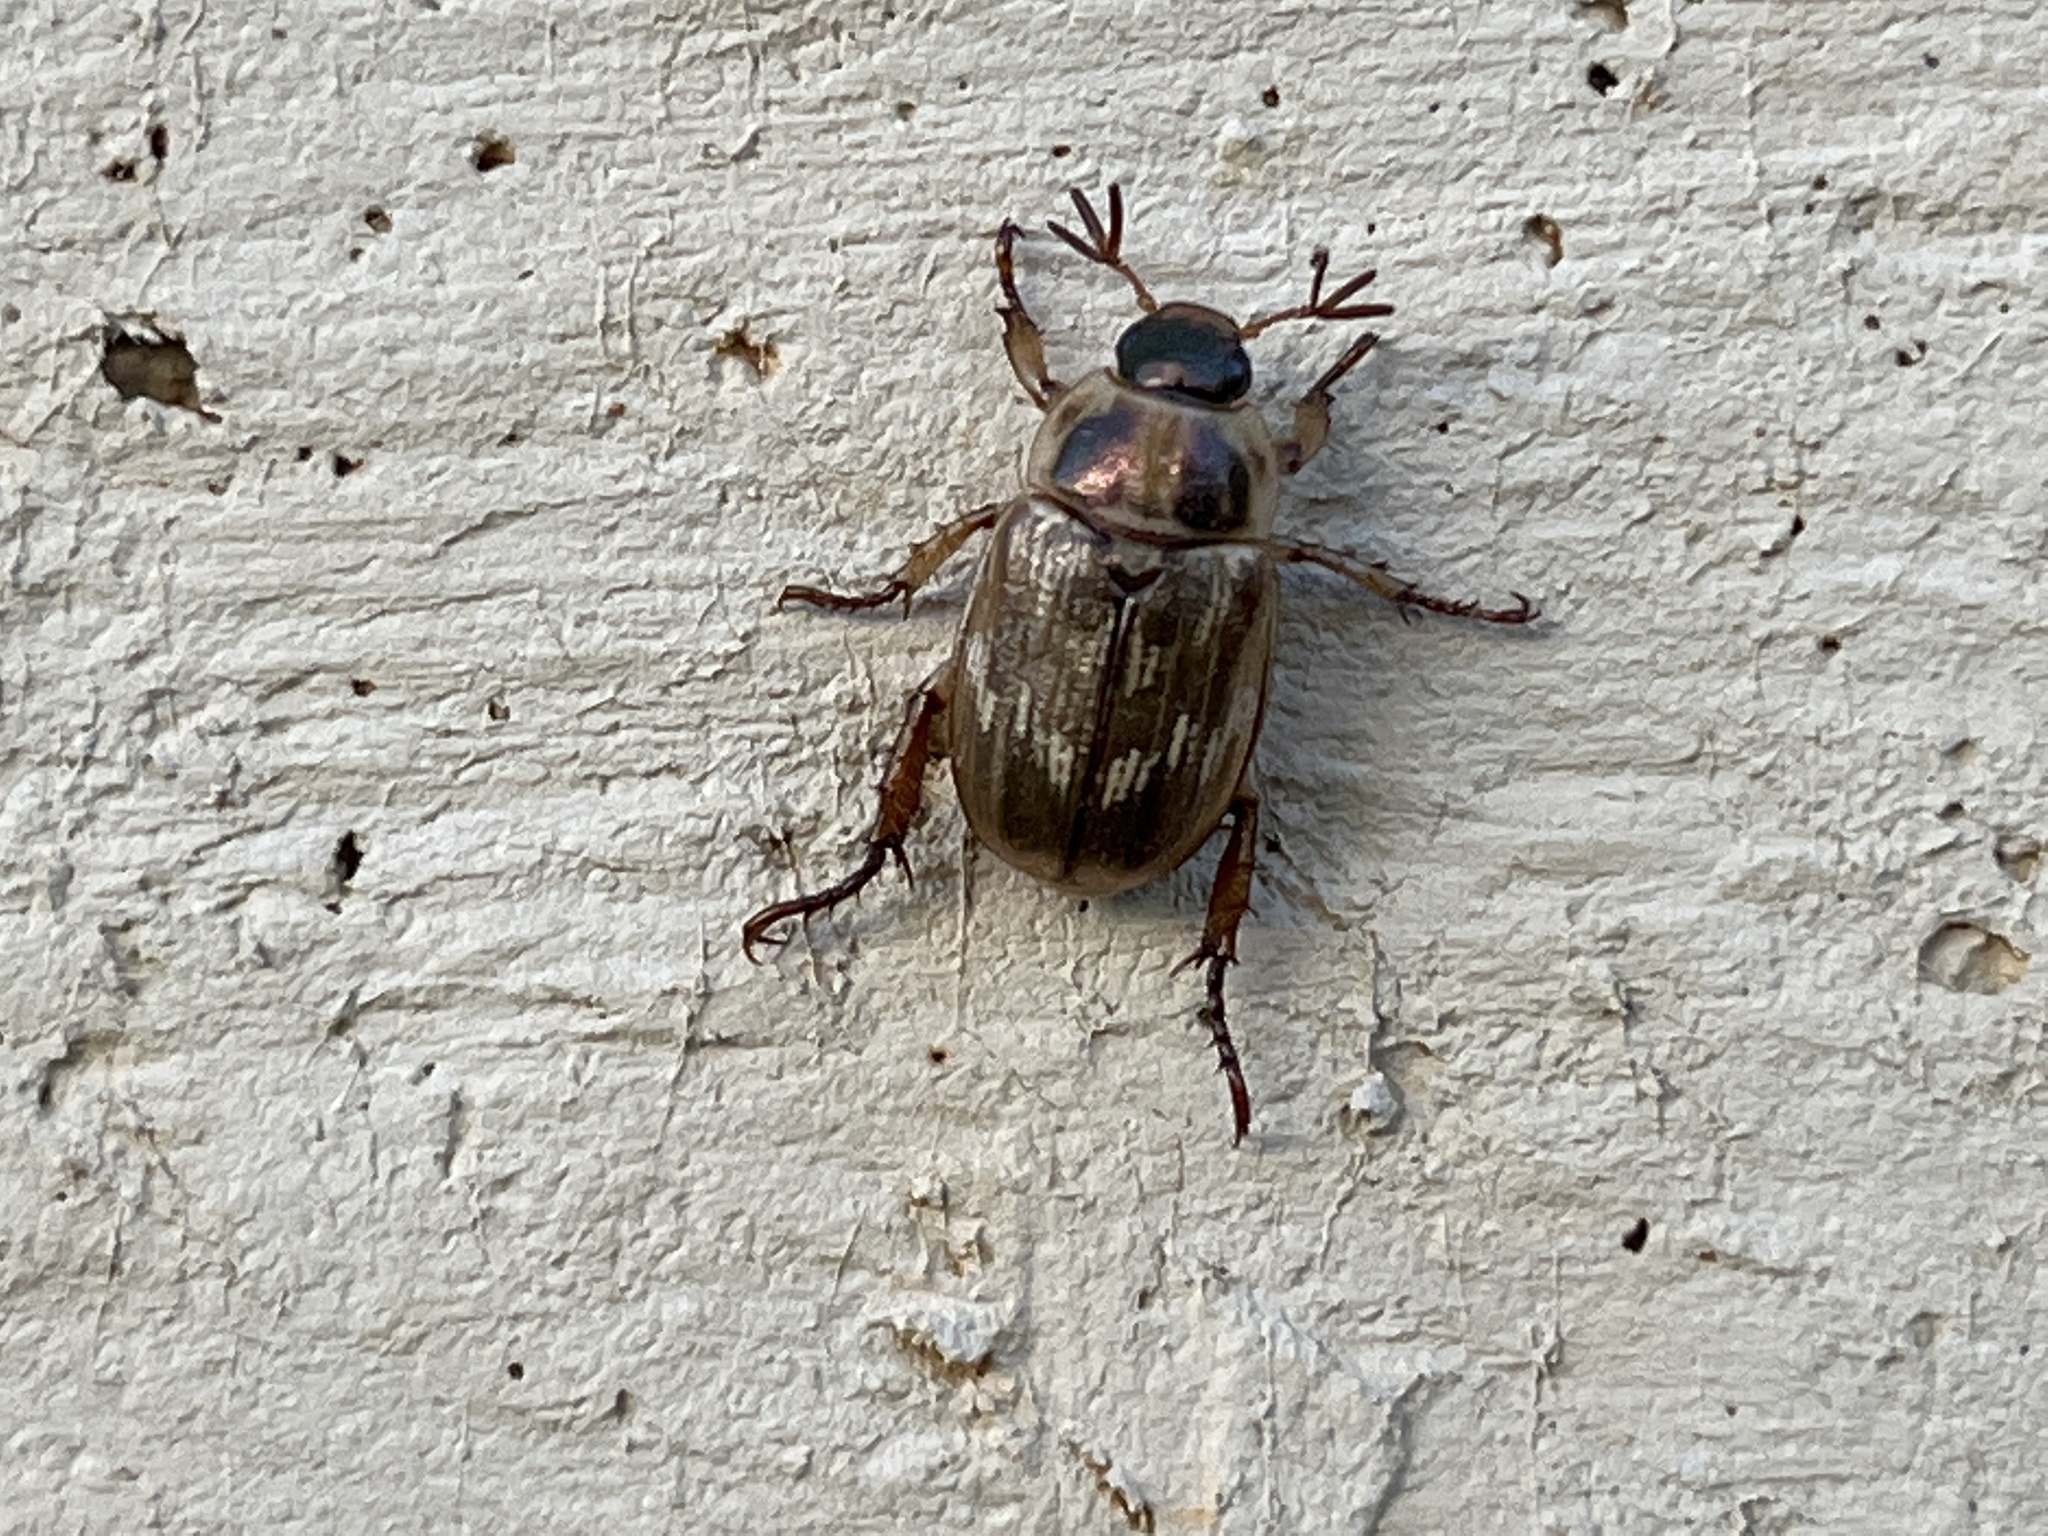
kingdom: Animalia
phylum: Arthropoda
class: Insecta
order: Coleoptera
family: Scarabaeidae
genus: Exomala
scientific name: Exomala orientalis
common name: Oriental beetle
